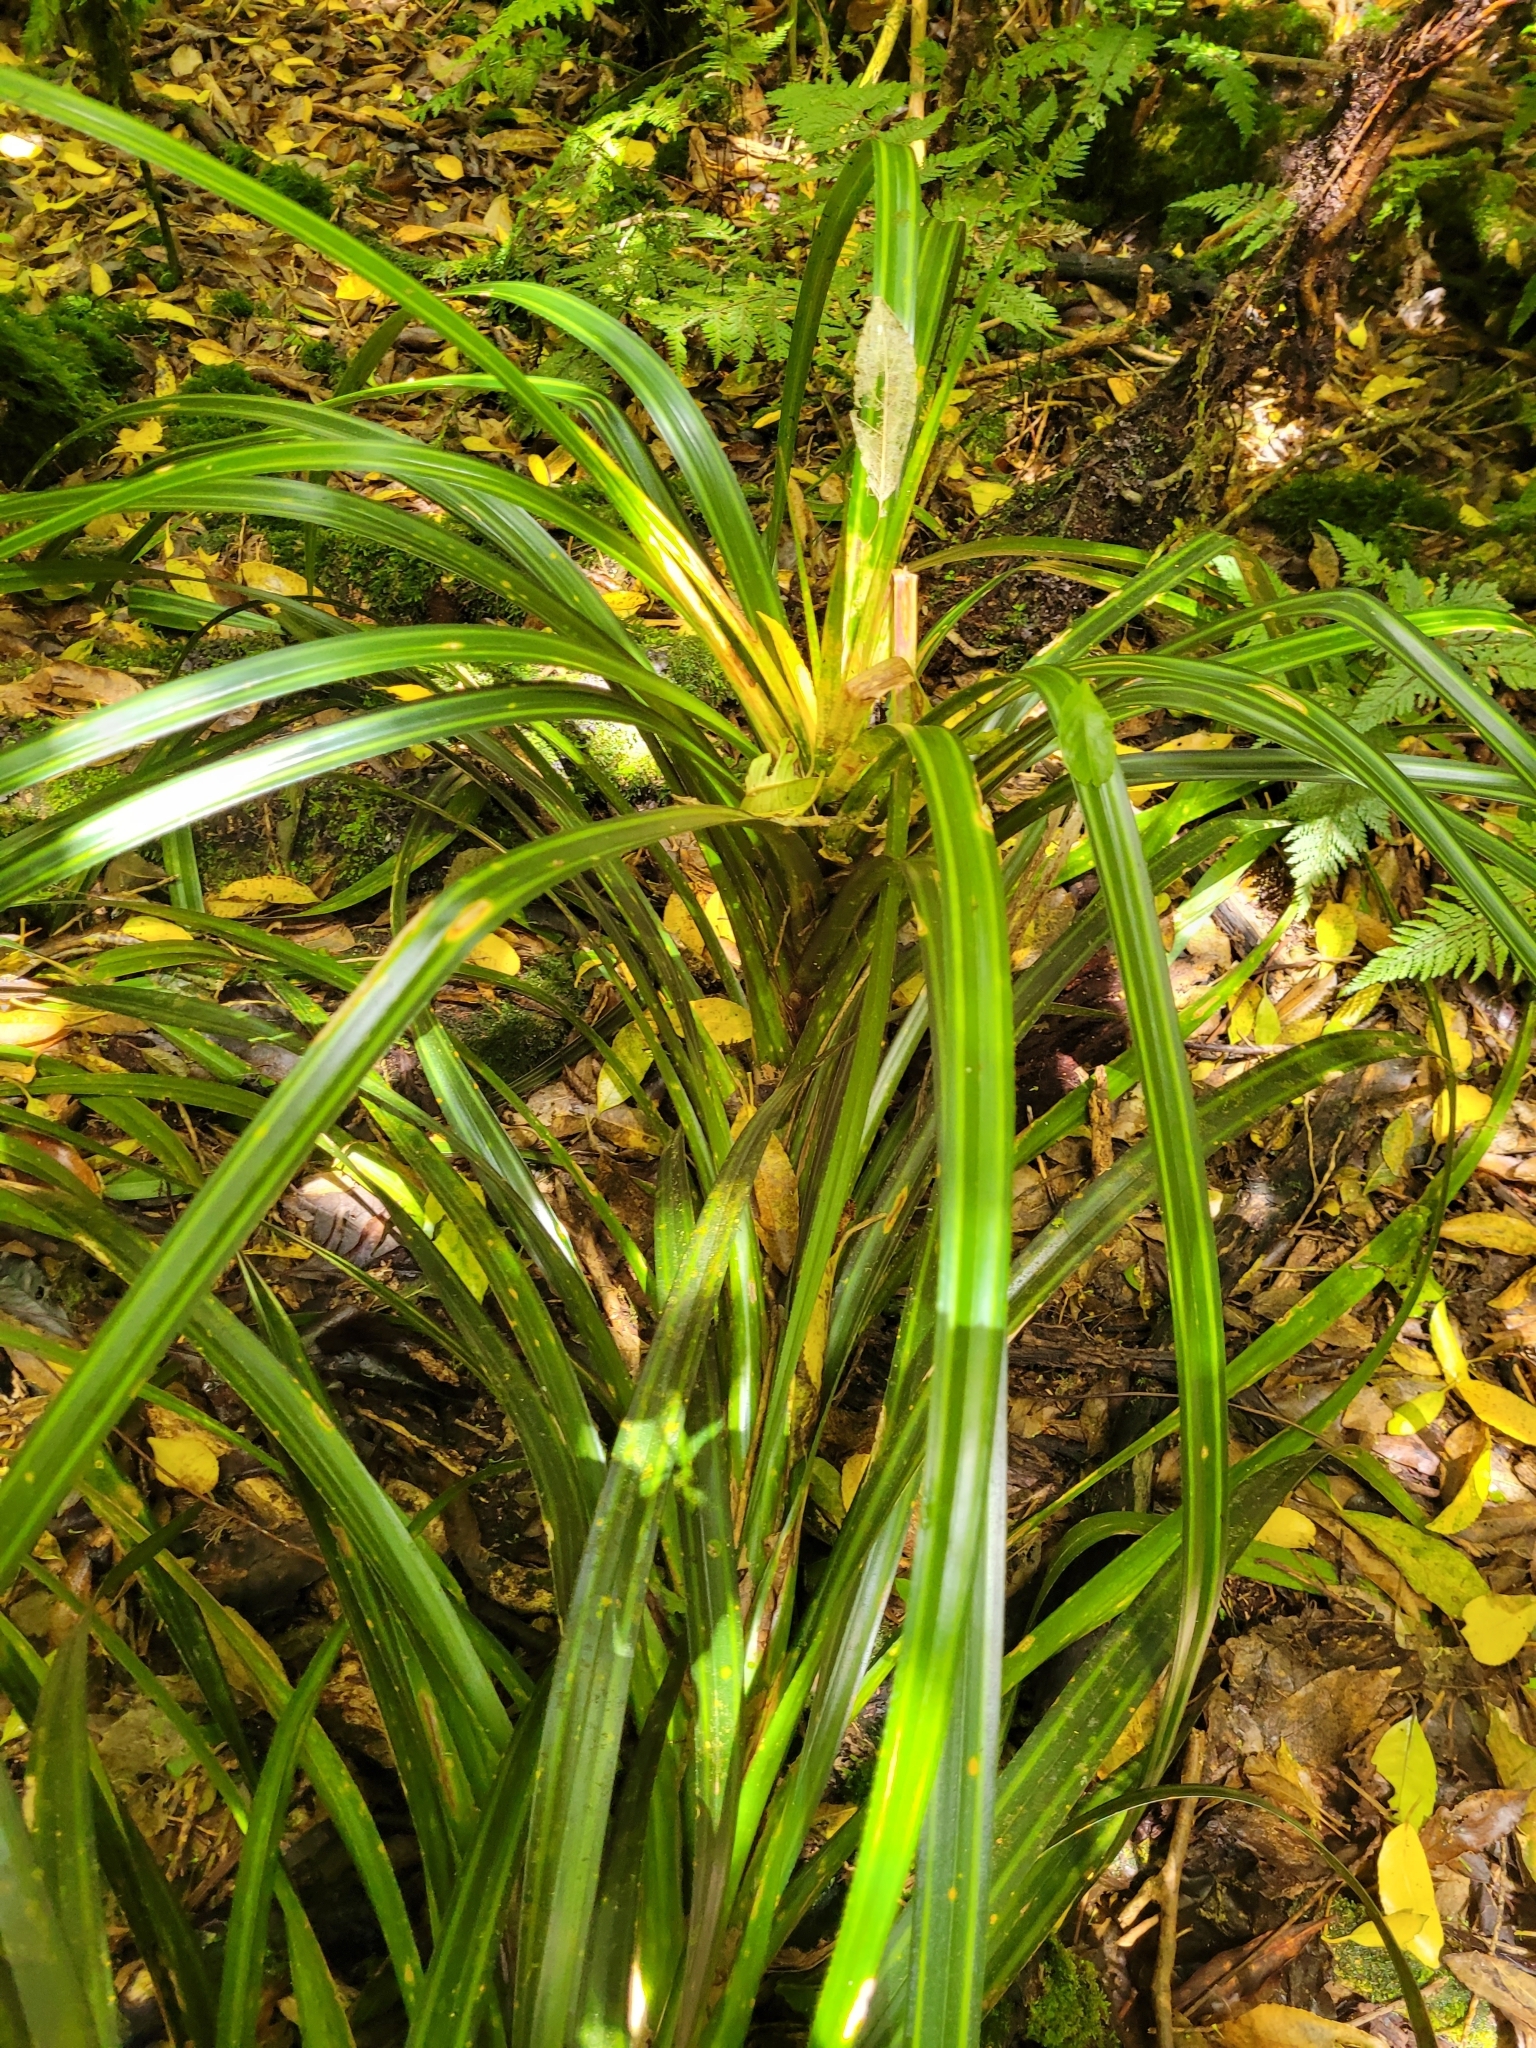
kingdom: Plantae
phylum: Tracheophyta
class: Liliopsida
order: Pandanales
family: Pandanaceae
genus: Freycinetia
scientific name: Freycinetia banksii
